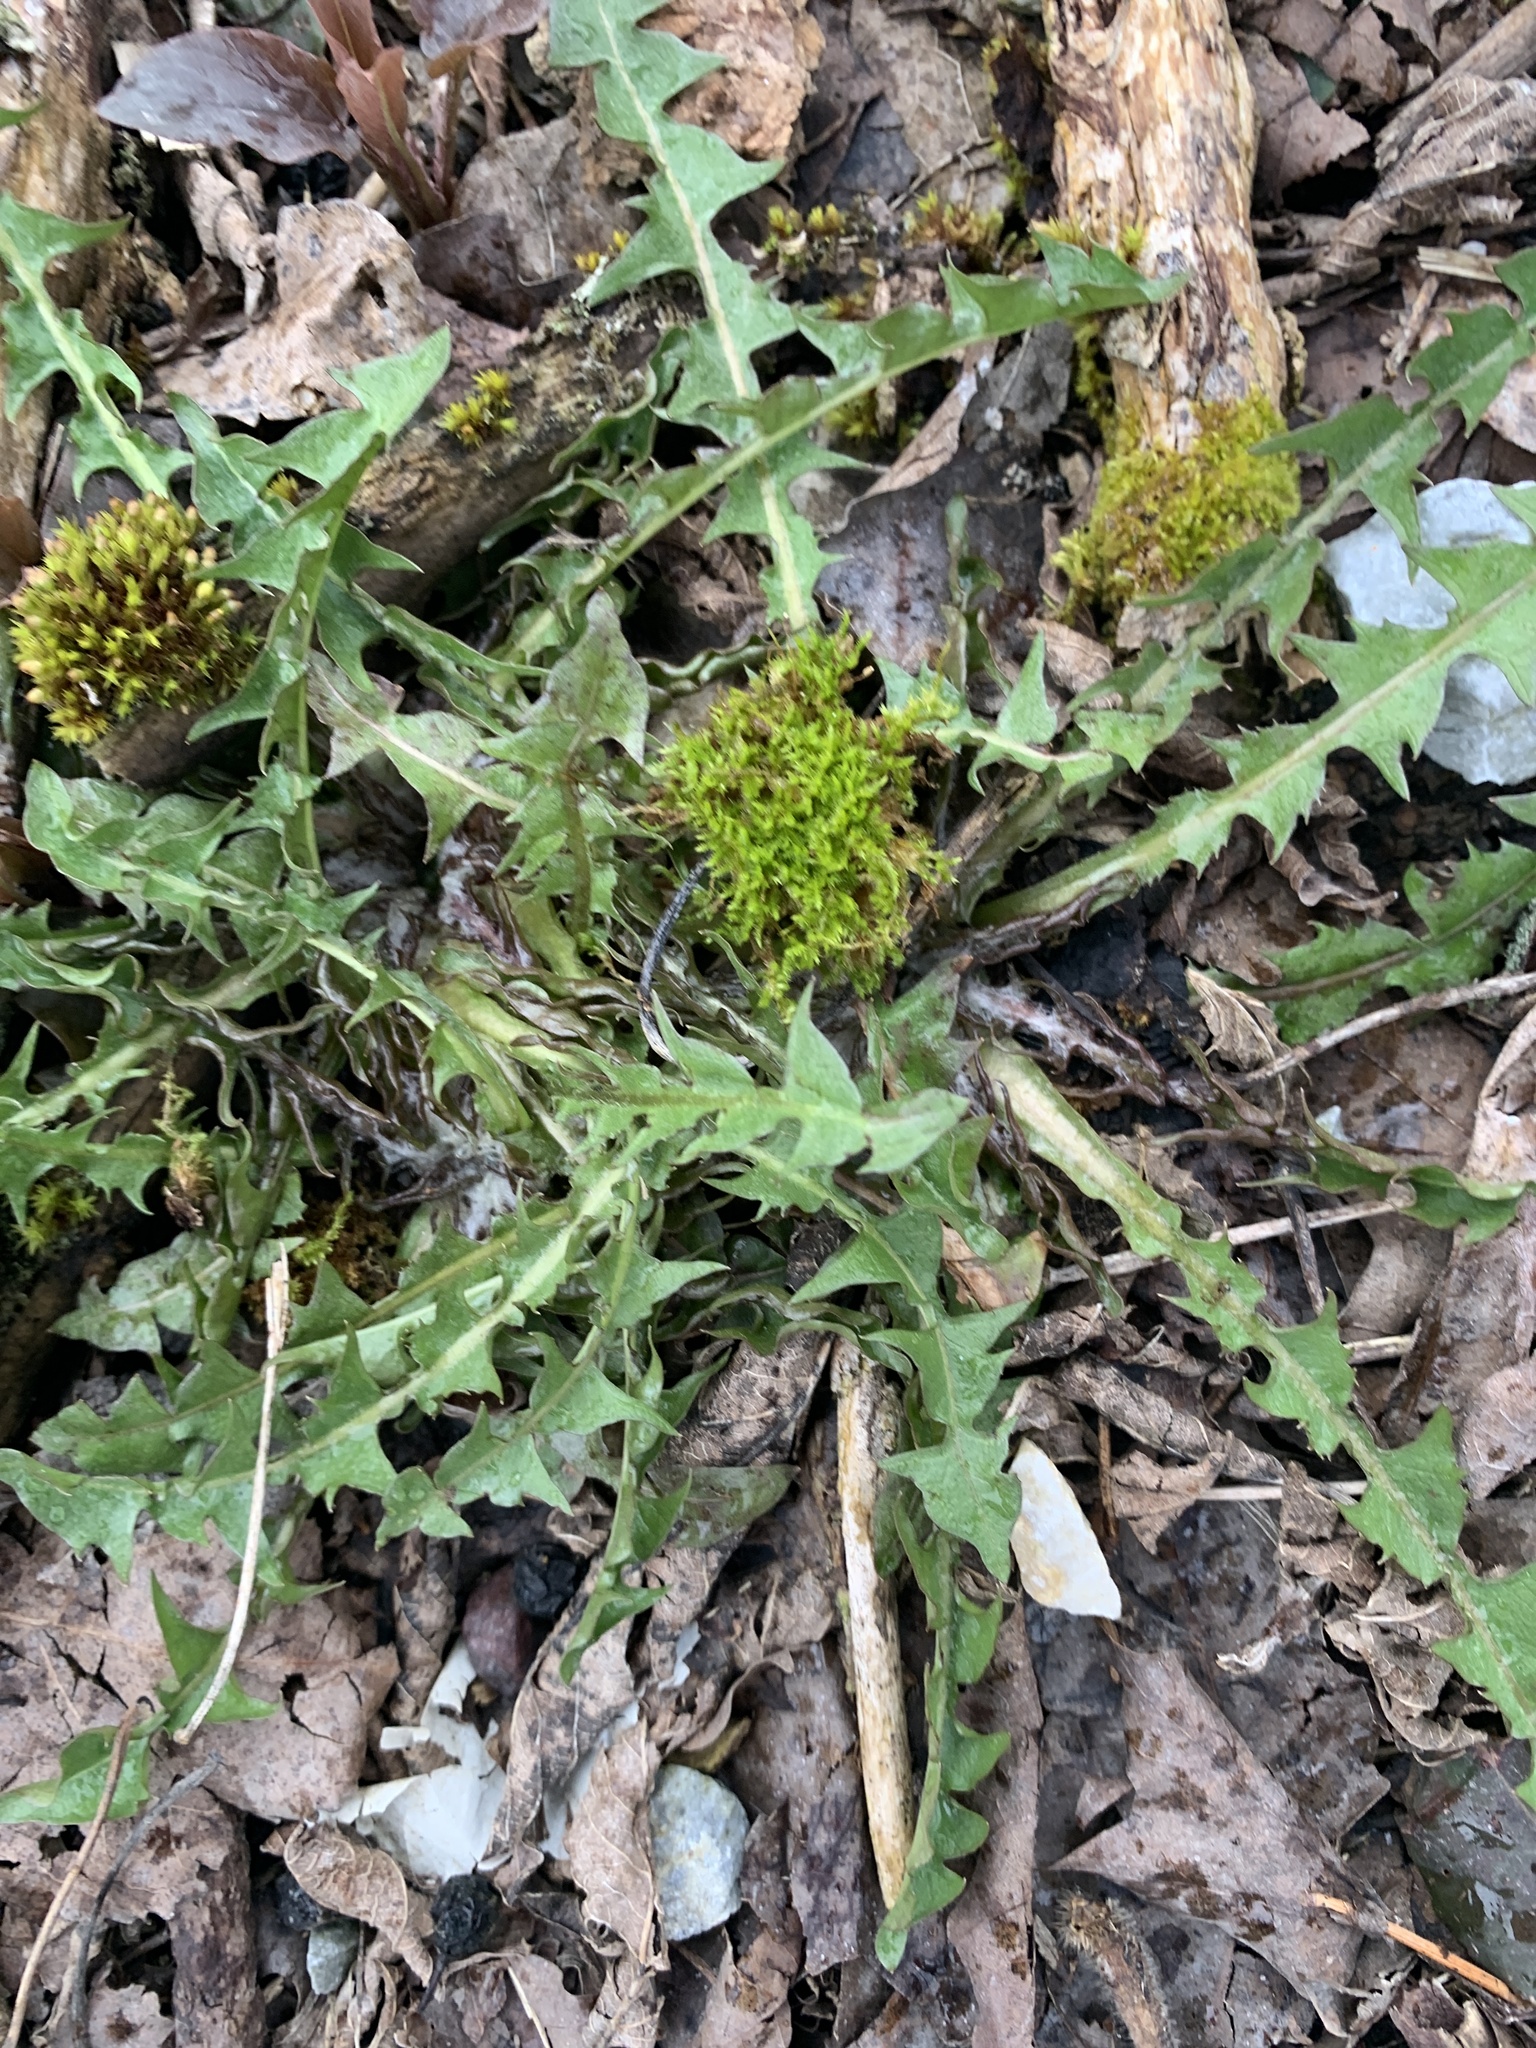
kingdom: Plantae
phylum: Tracheophyta
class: Magnoliopsida
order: Asterales
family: Asteraceae
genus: Taraxacum
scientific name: Taraxacum
